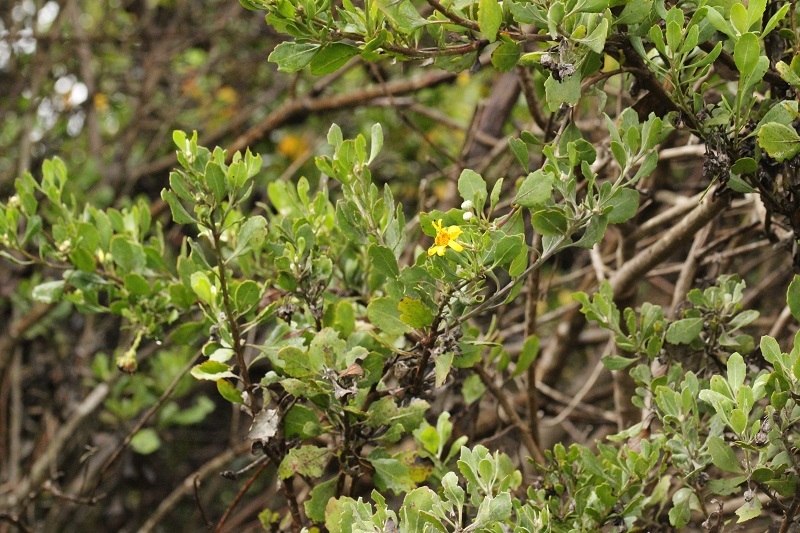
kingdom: Plantae
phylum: Tracheophyta
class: Magnoliopsida
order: Asterales
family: Asteraceae
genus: Osteospermum
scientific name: Osteospermum moniliferum
